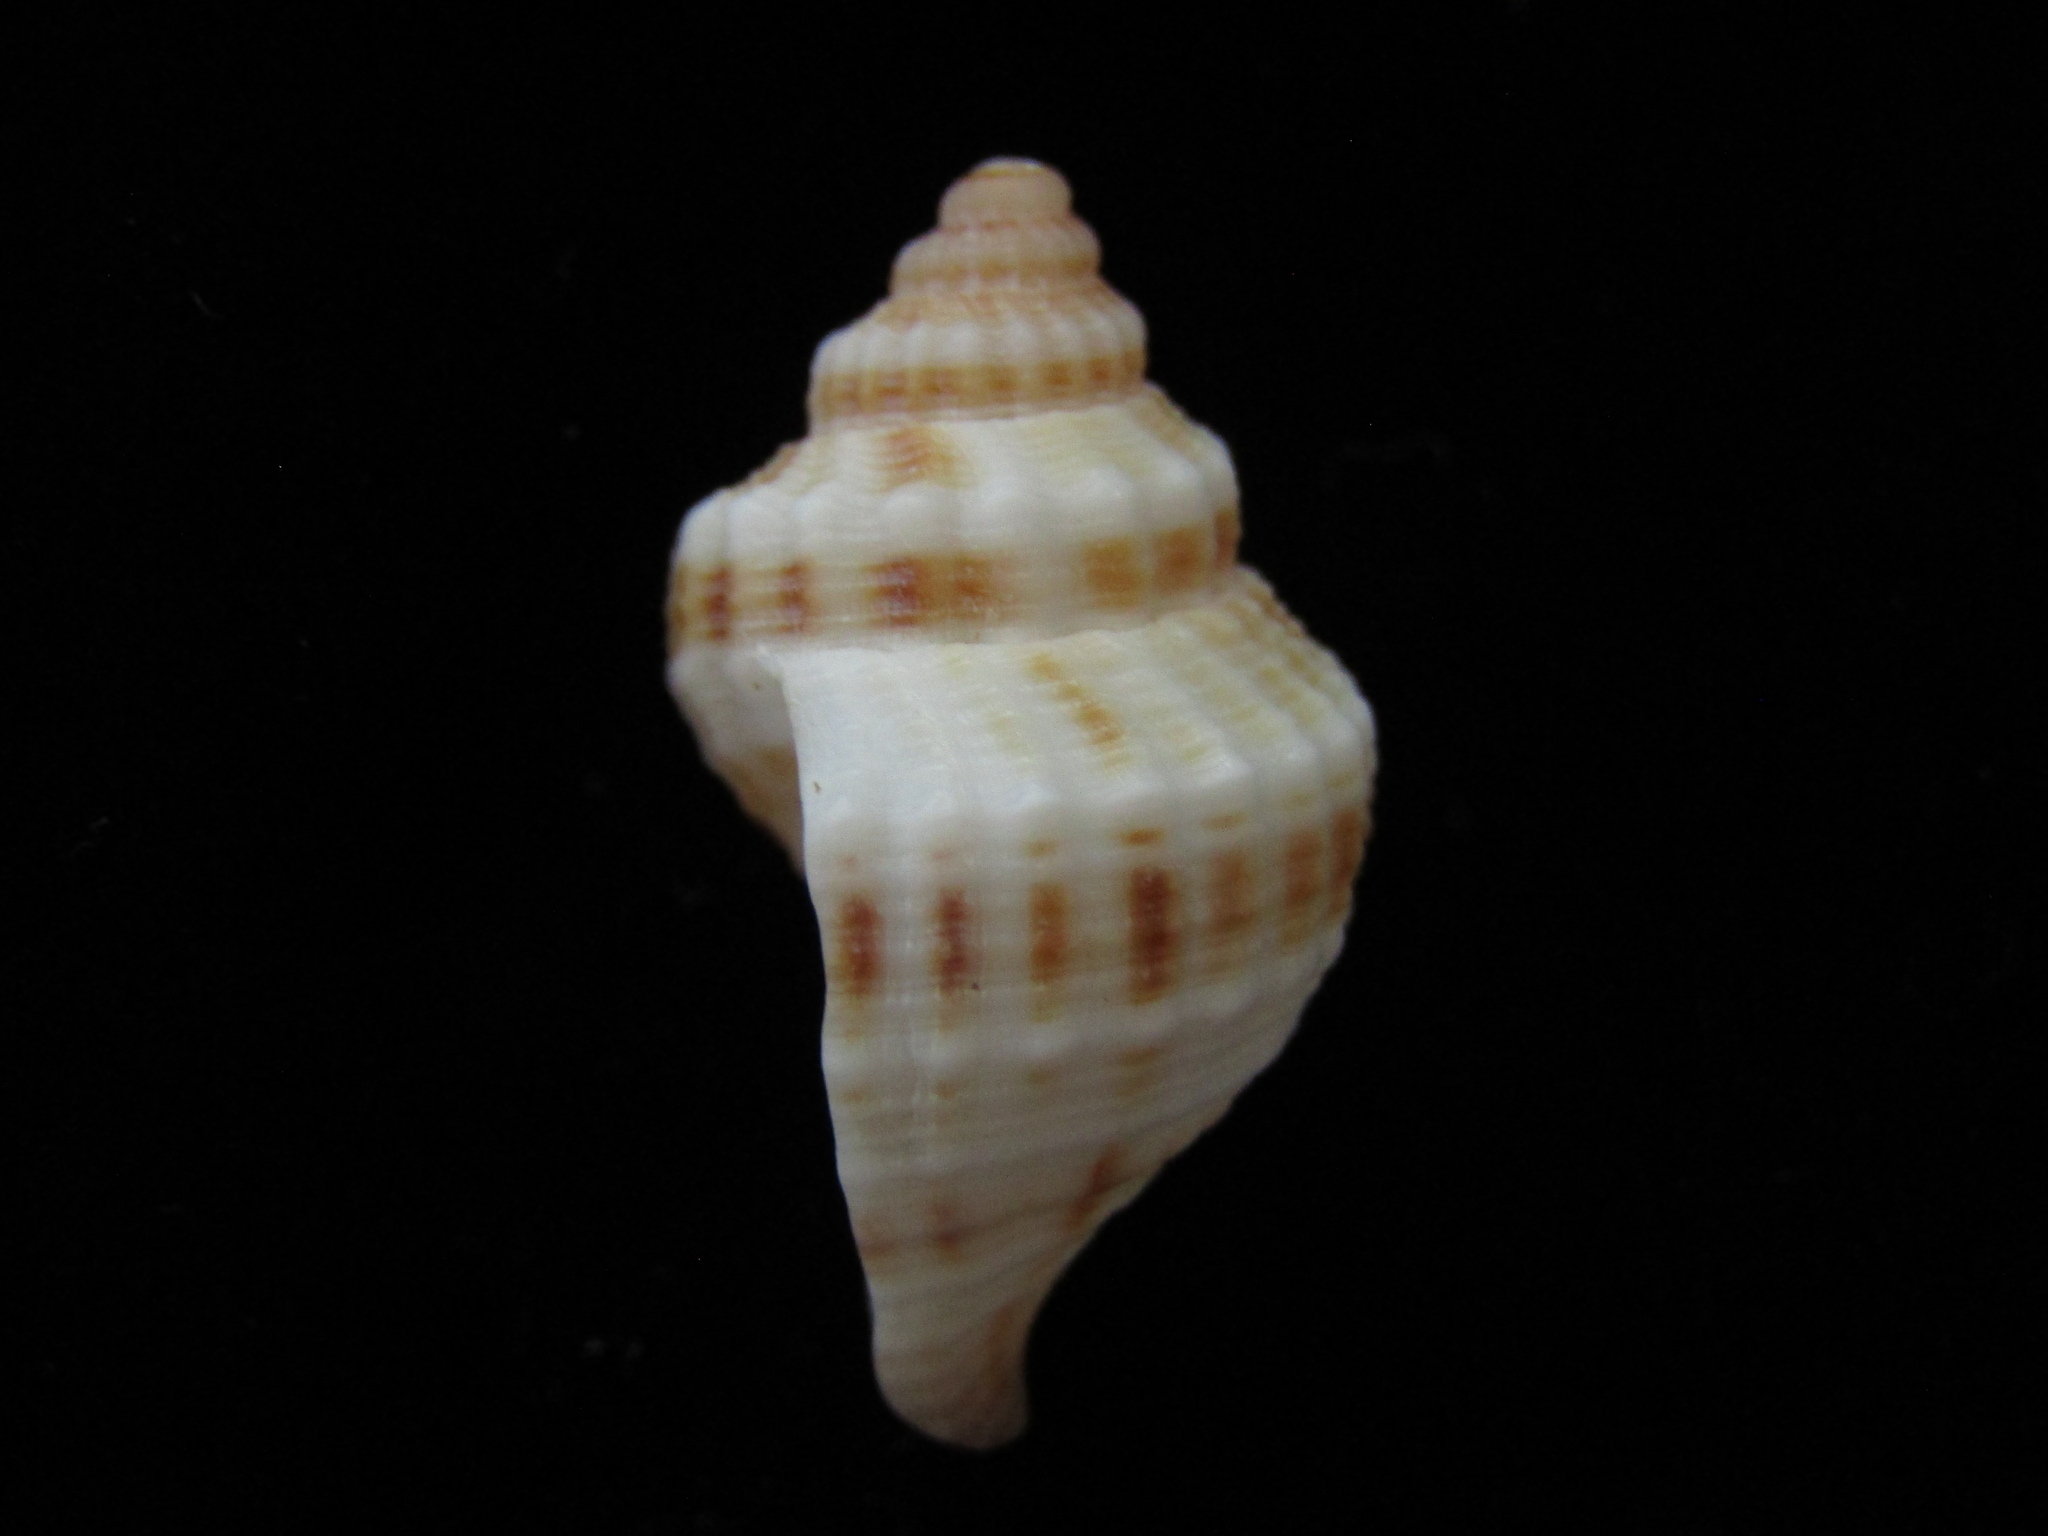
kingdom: Animalia
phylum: Mollusca
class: Gastropoda
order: Neogastropoda
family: Prosiphonidae
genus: Austrofusus
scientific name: Austrofusus glans
